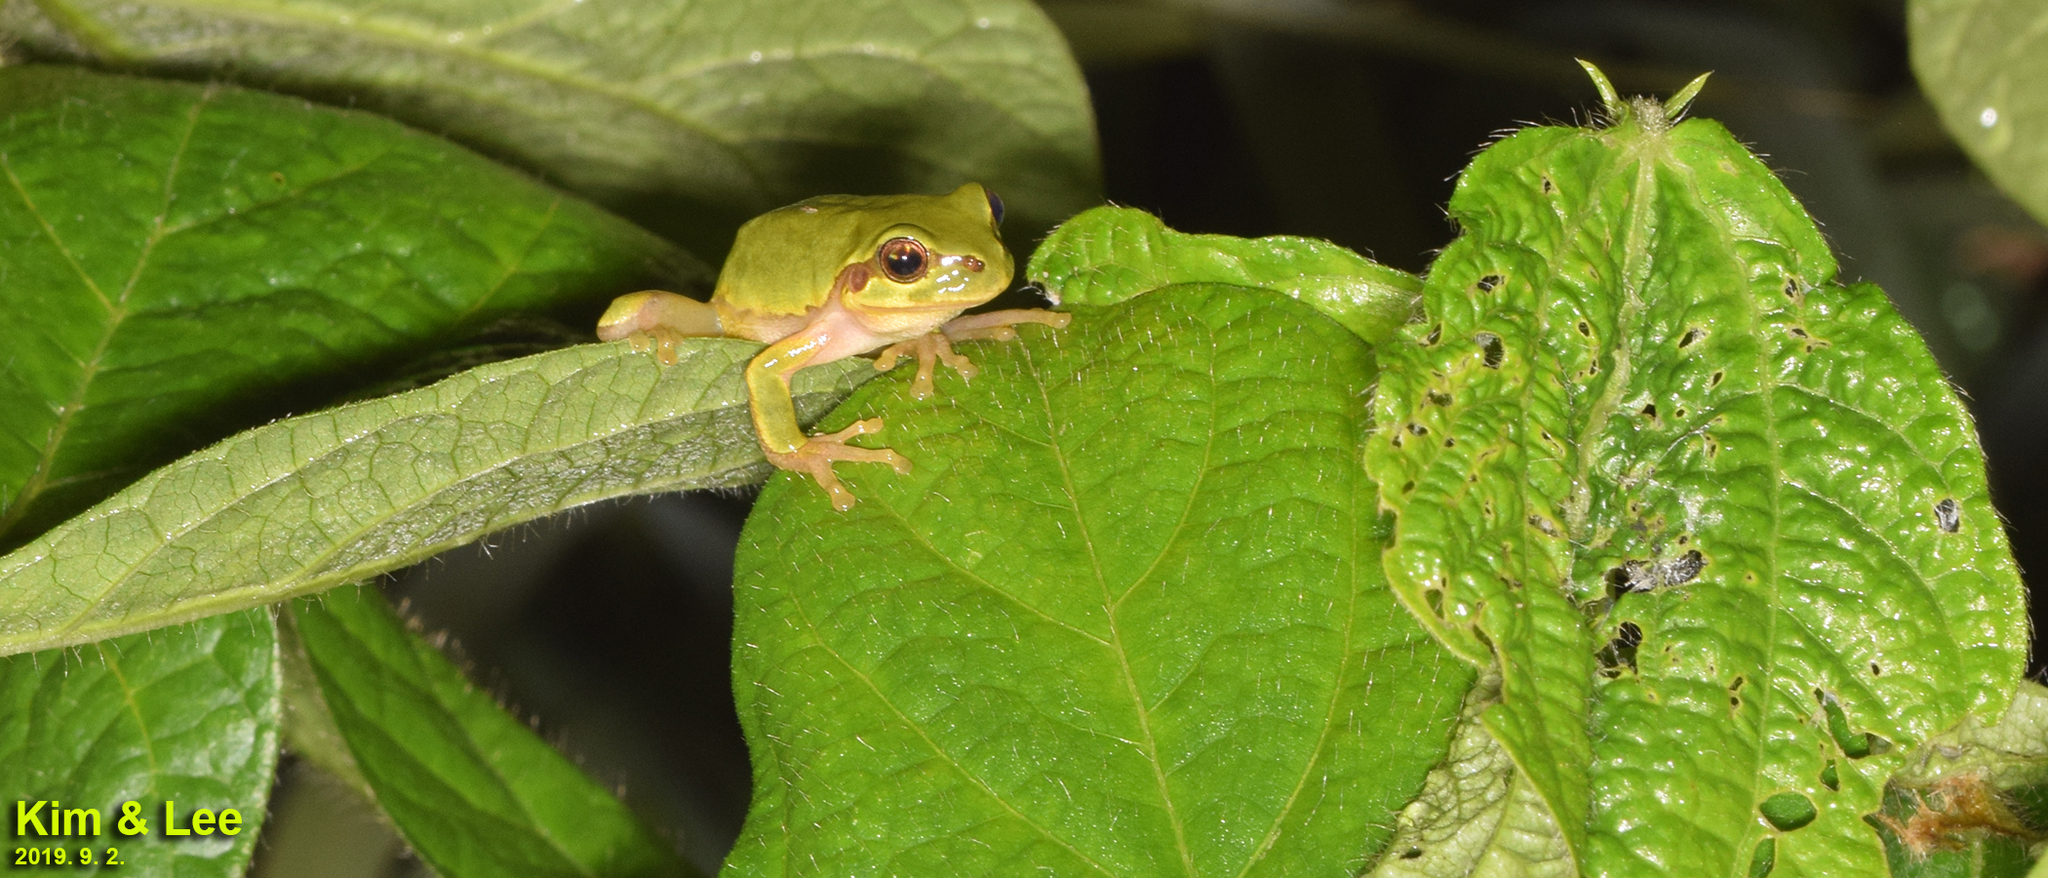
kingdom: Animalia
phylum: Chordata
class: Amphibia
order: Anura
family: Hylidae
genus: Dryophytes
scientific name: Dryophytes japonicus
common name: Japanese treefrog
